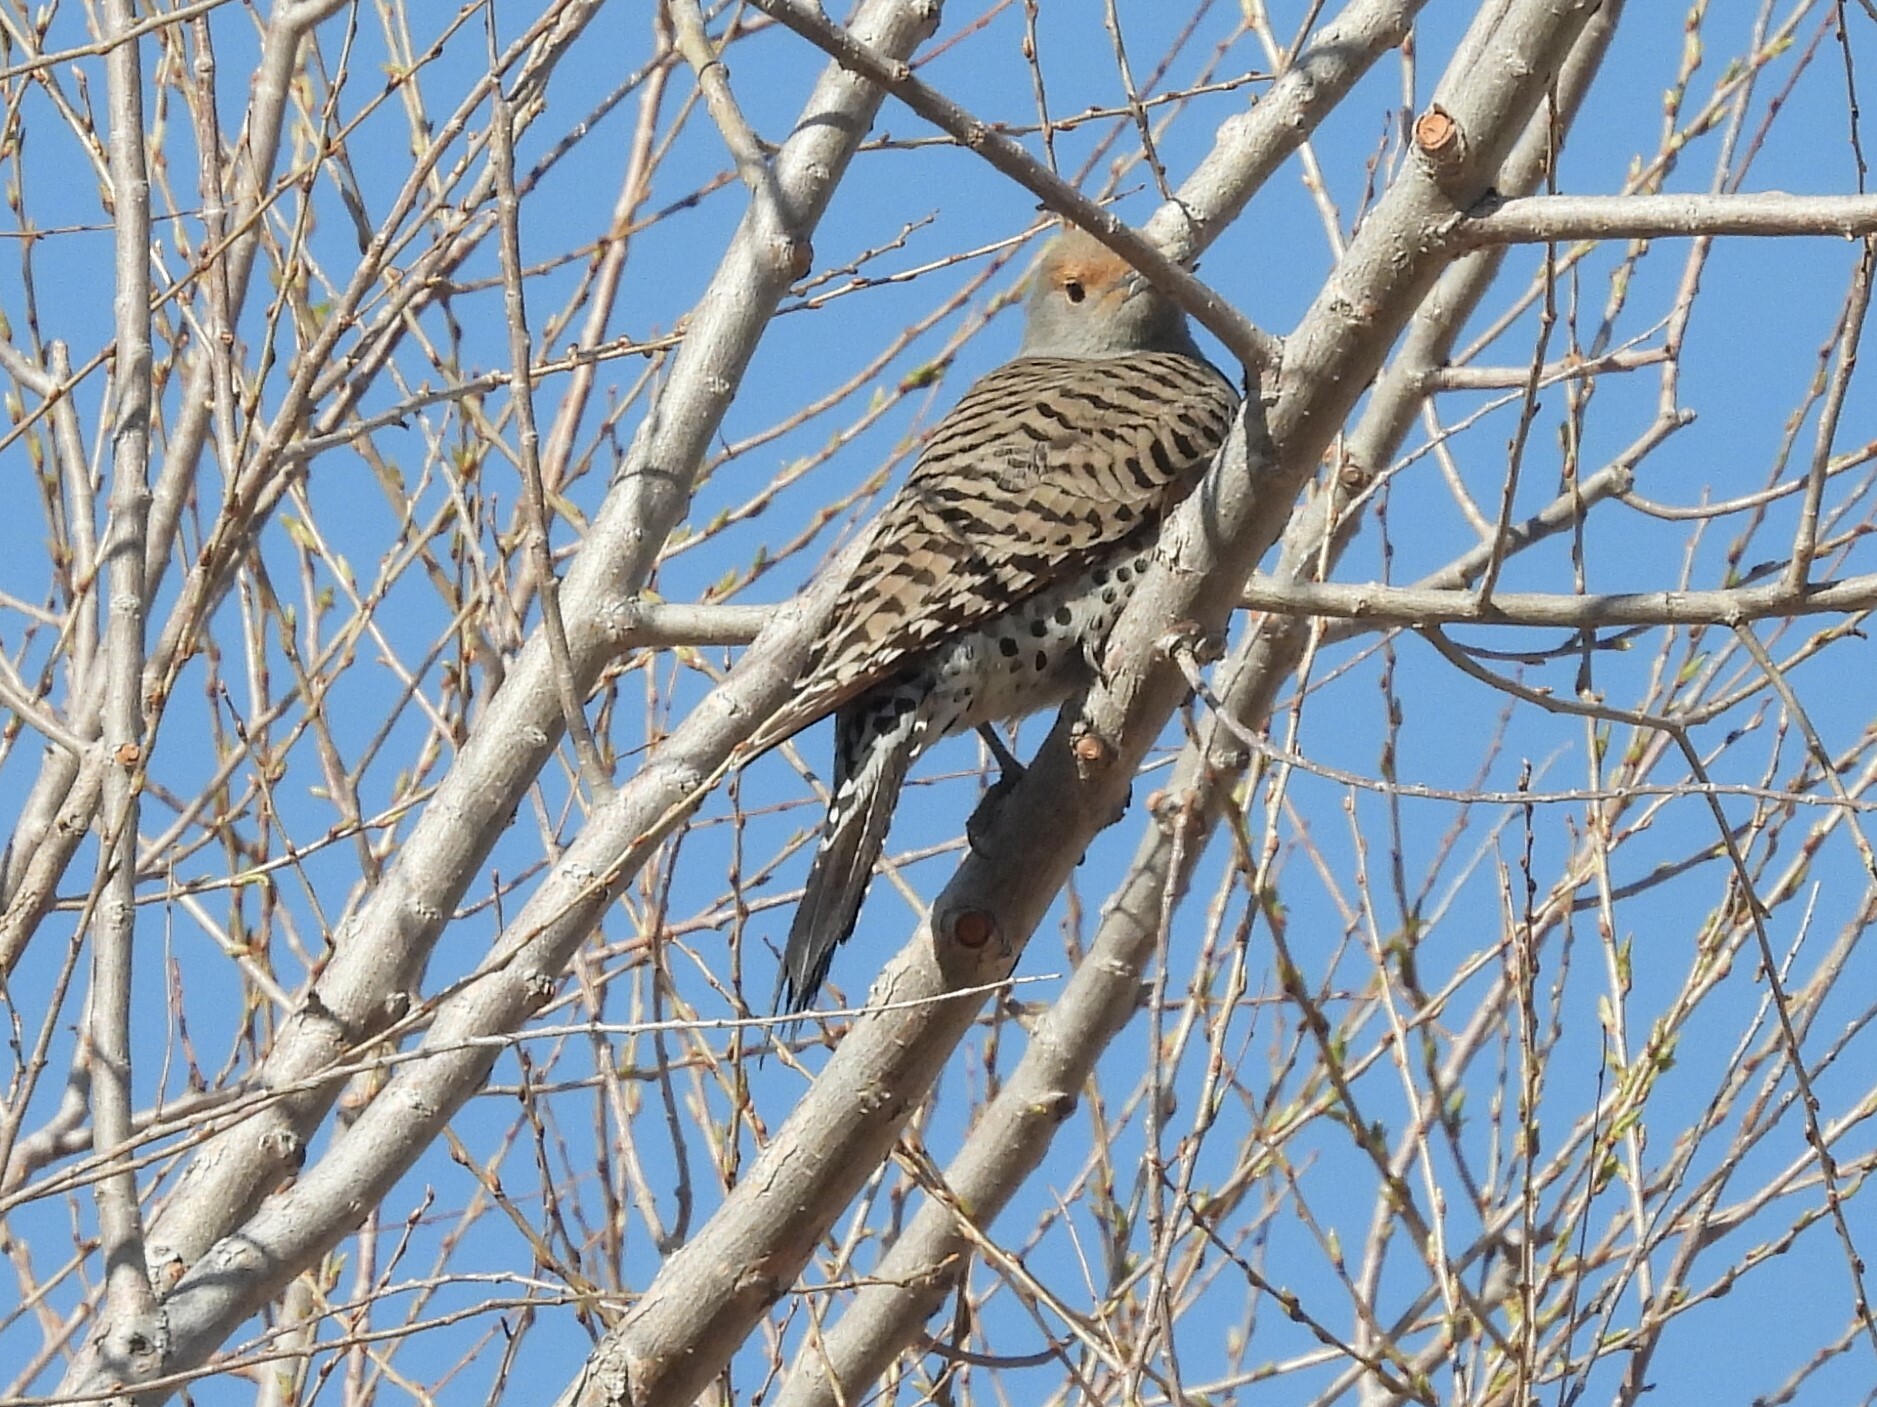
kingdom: Animalia
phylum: Chordata
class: Aves
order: Piciformes
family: Picidae
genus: Colaptes
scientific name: Colaptes auratus
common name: Northern flicker
